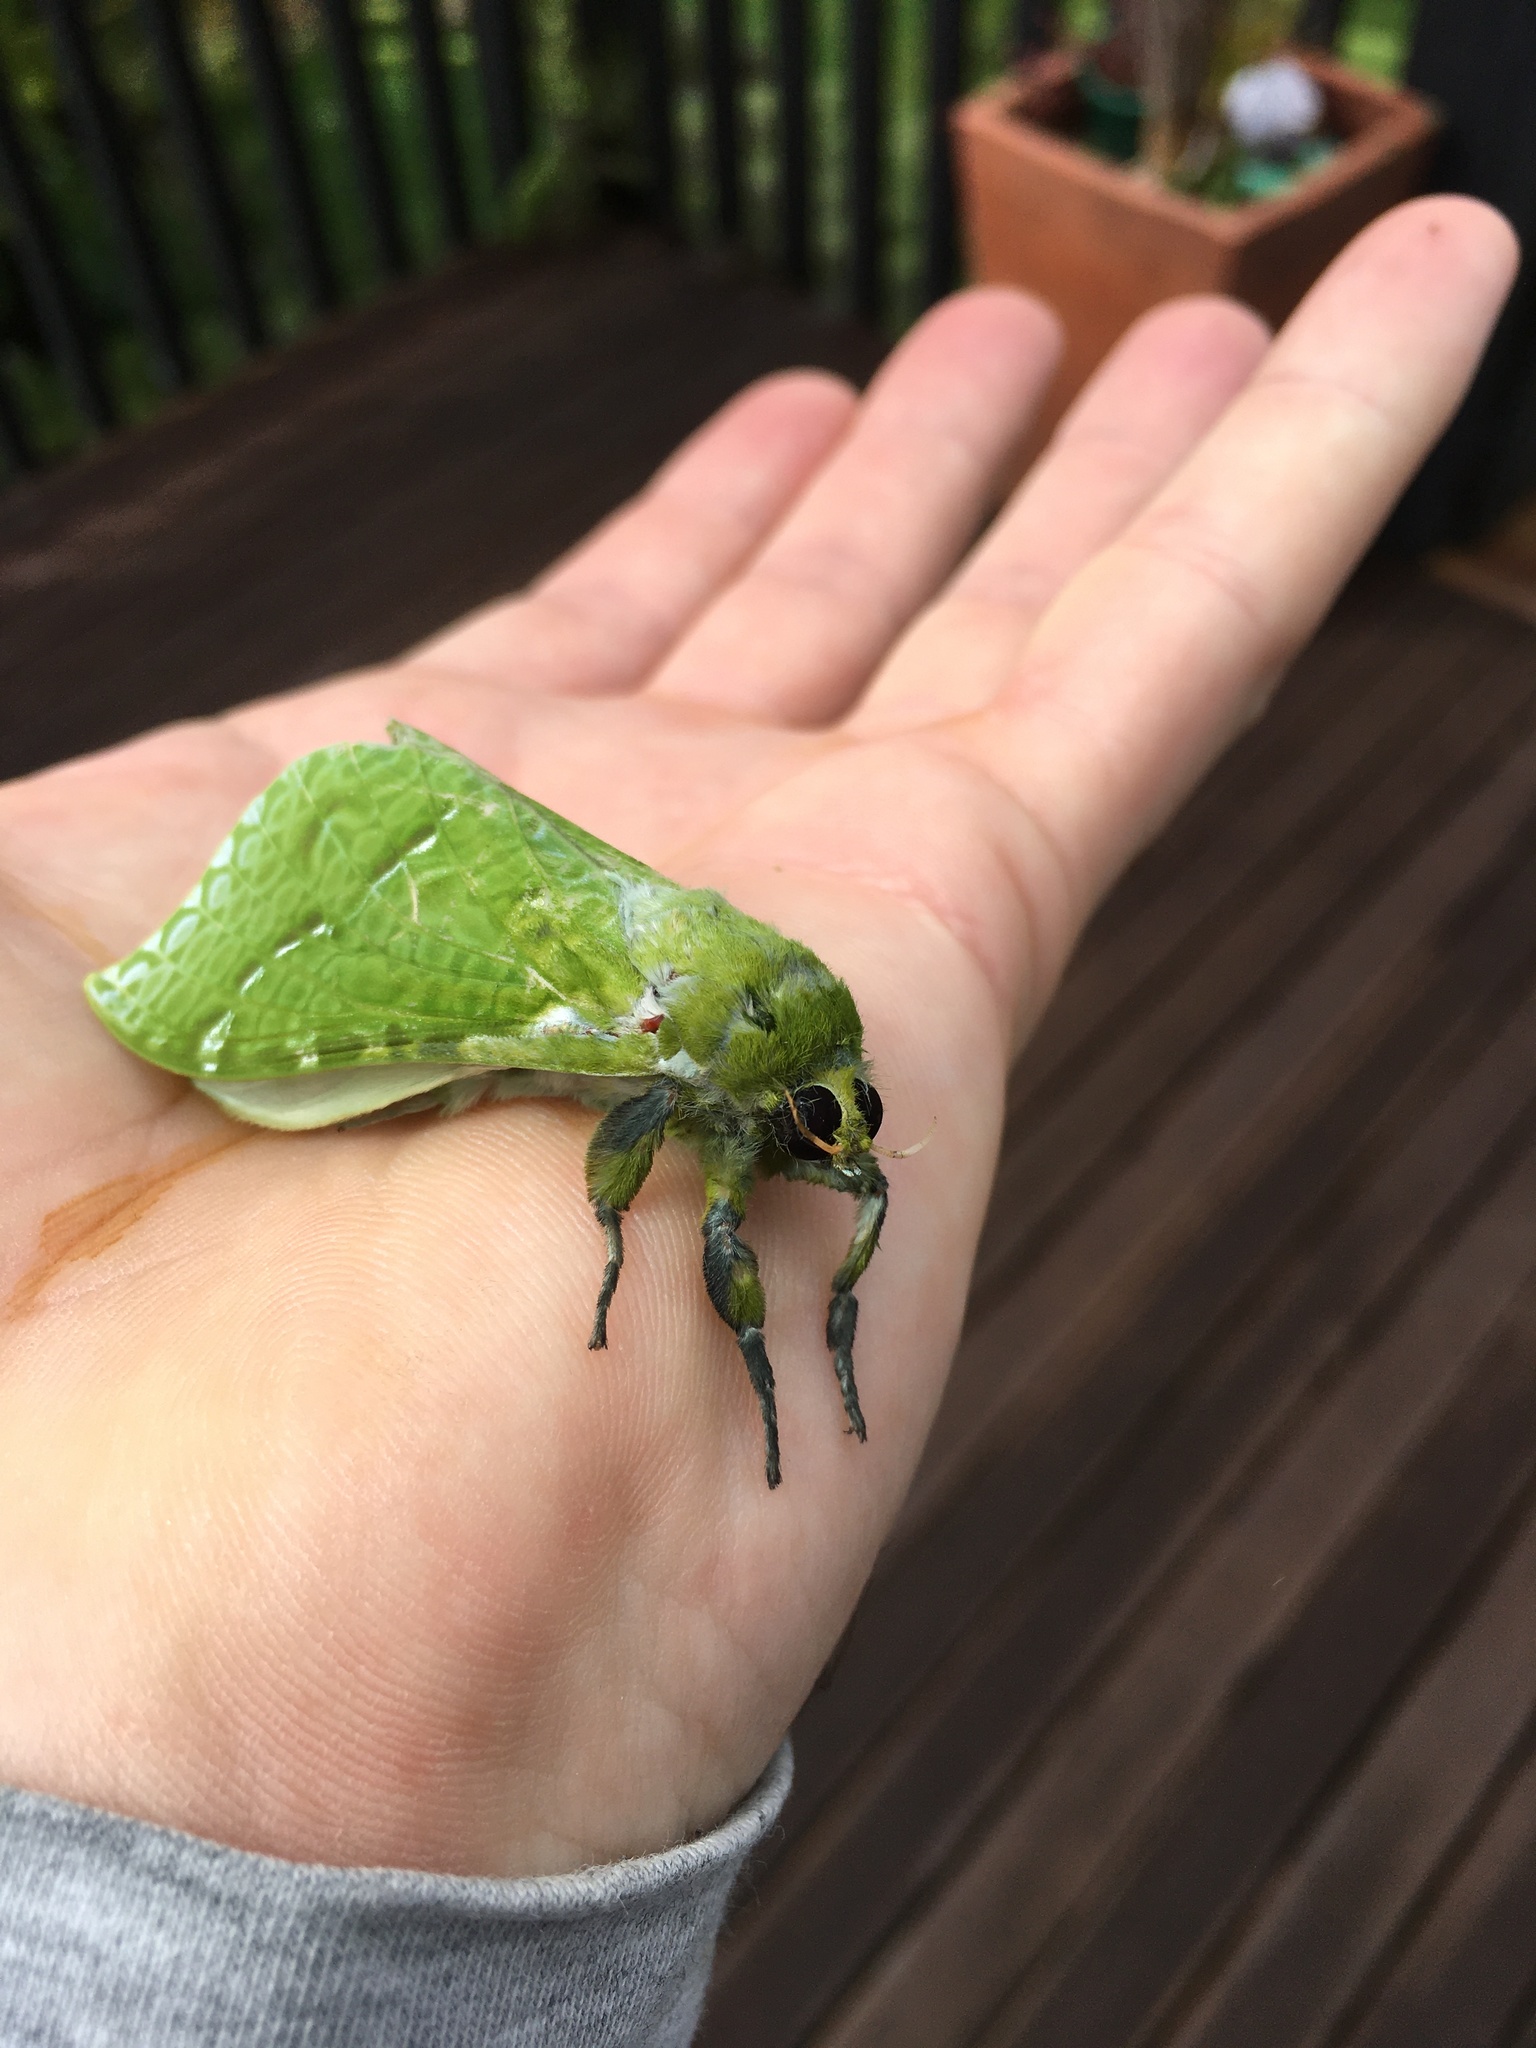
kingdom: Animalia
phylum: Arthropoda
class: Insecta
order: Lepidoptera
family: Hepialidae
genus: Aenetus
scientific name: Aenetus virescens
